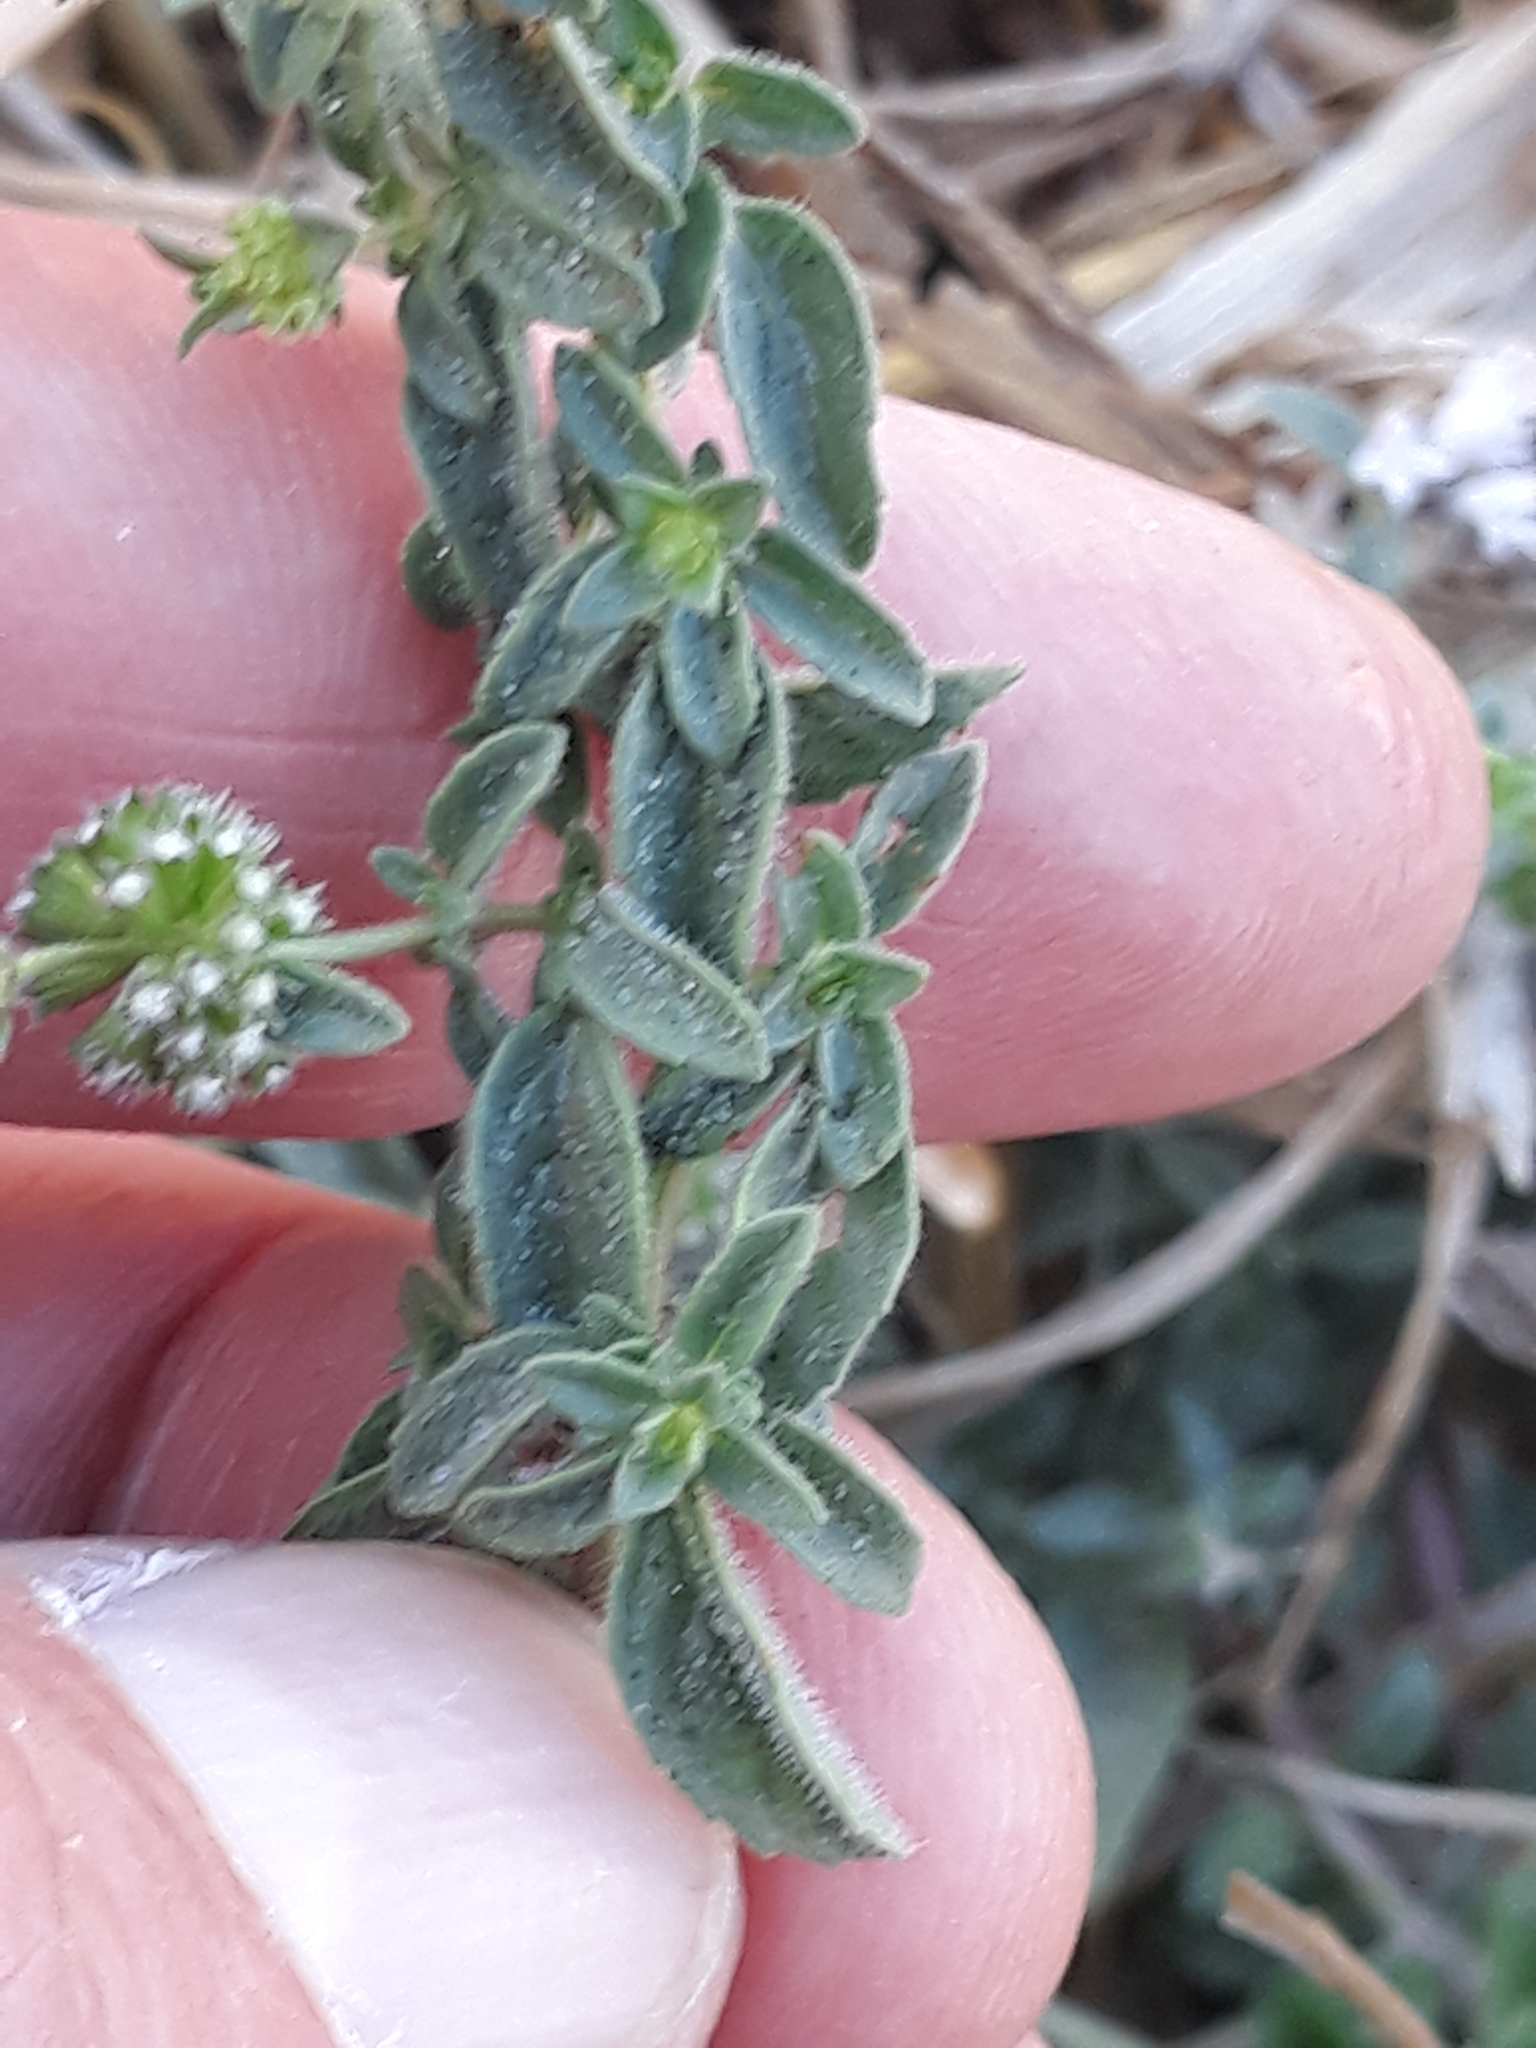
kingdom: Plantae
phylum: Tracheophyta
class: Magnoliopsida
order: Lamiales
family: Lamiaceae
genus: Mentha
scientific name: Mentha pulegium
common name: Pennyroyal
